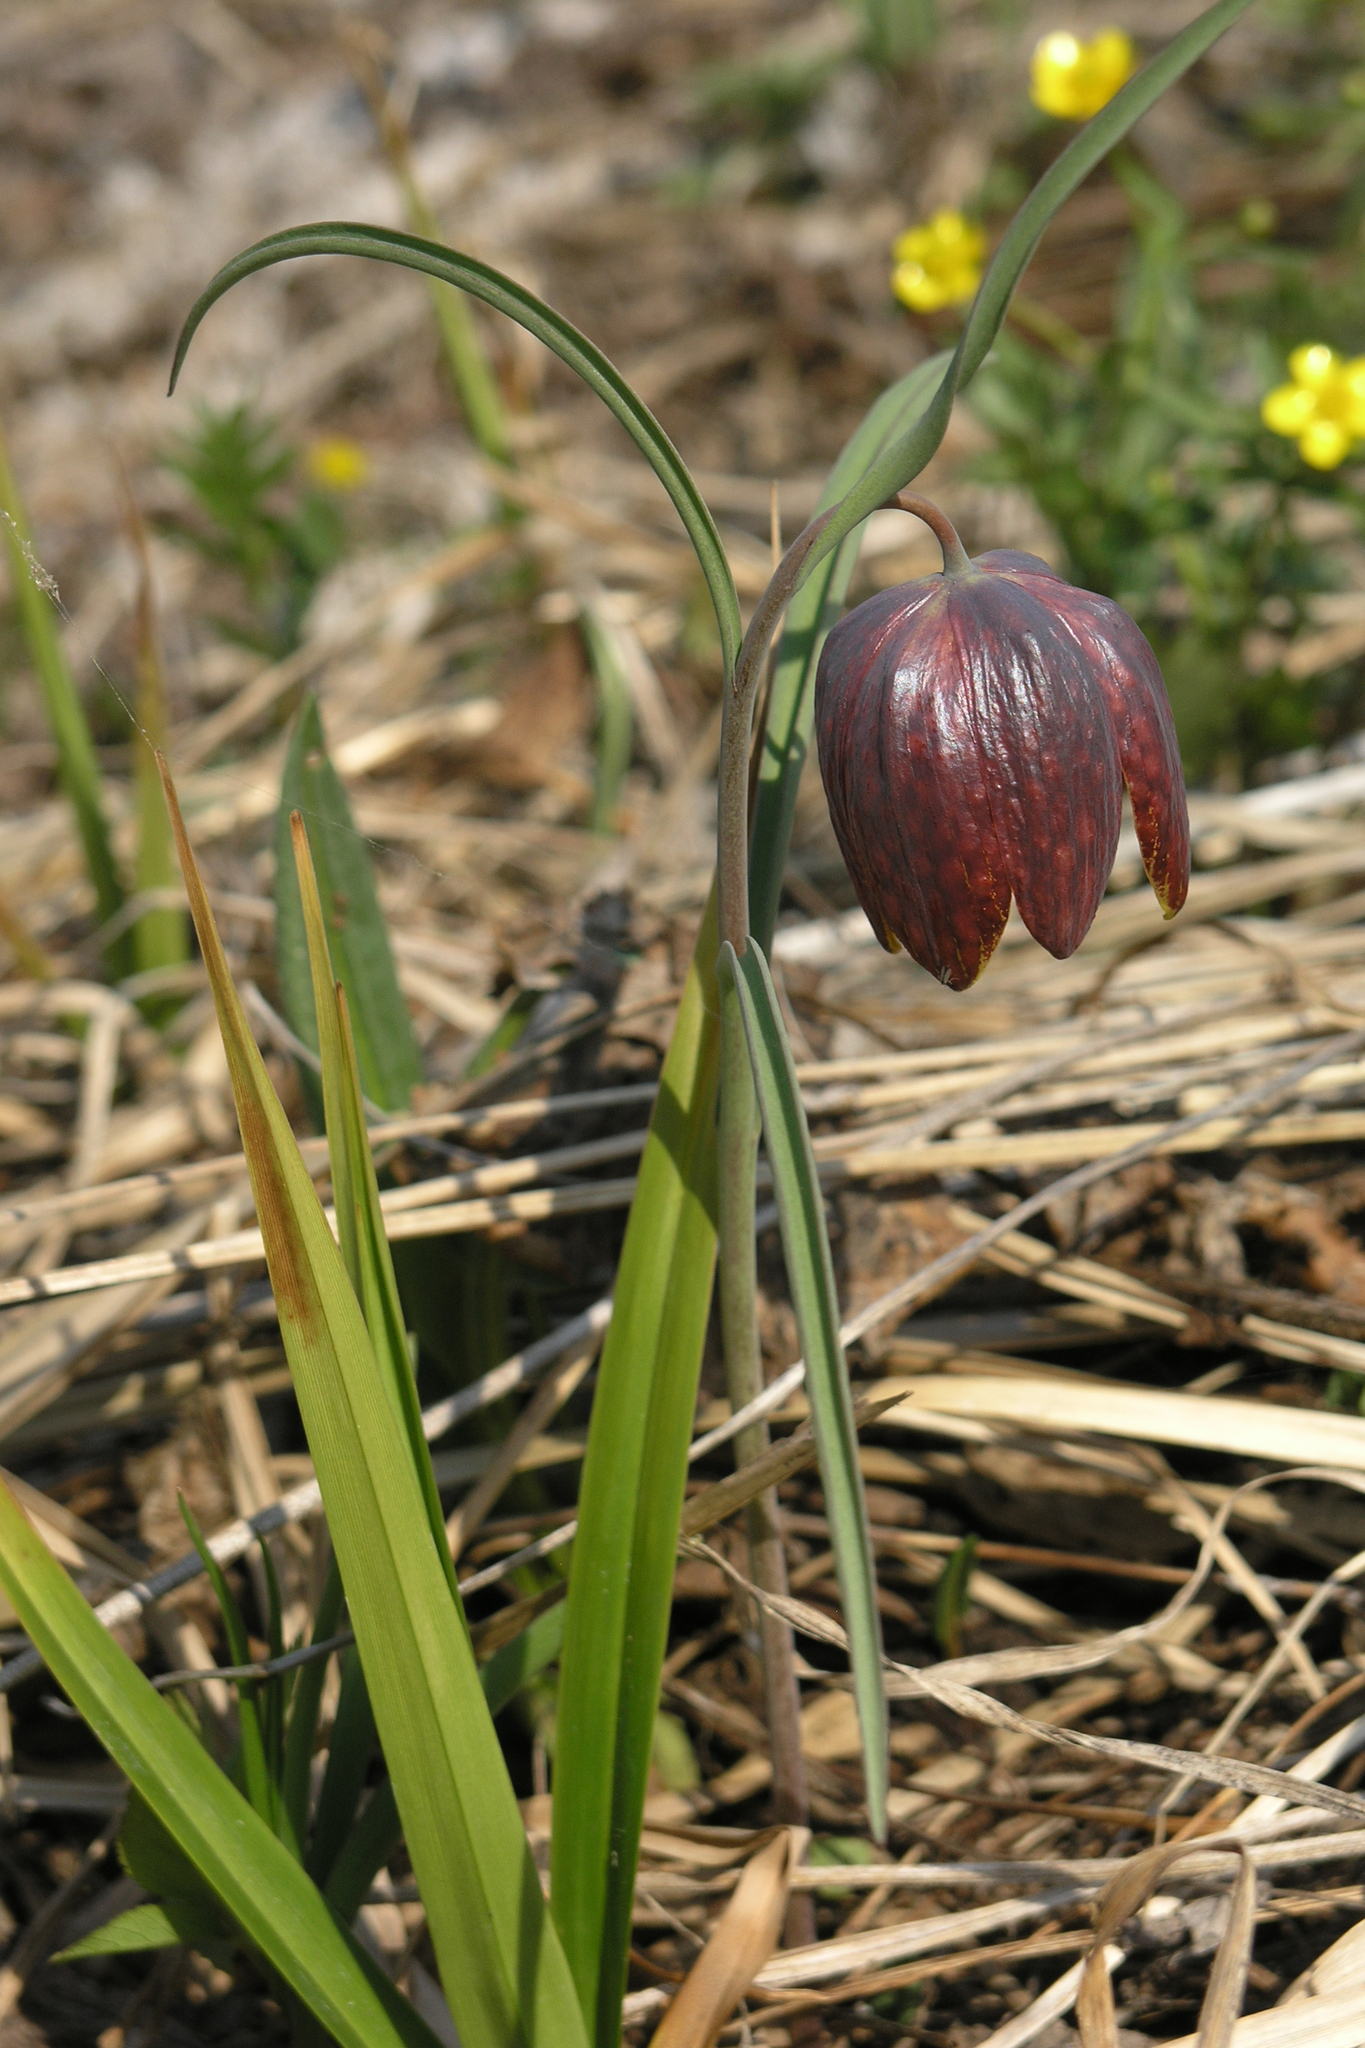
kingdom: Plantae
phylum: Tracheophyta
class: Liliopsida
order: Liliales
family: Liliaceae
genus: Fritillaria
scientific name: Fritillaria meleagris
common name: Fritillary
